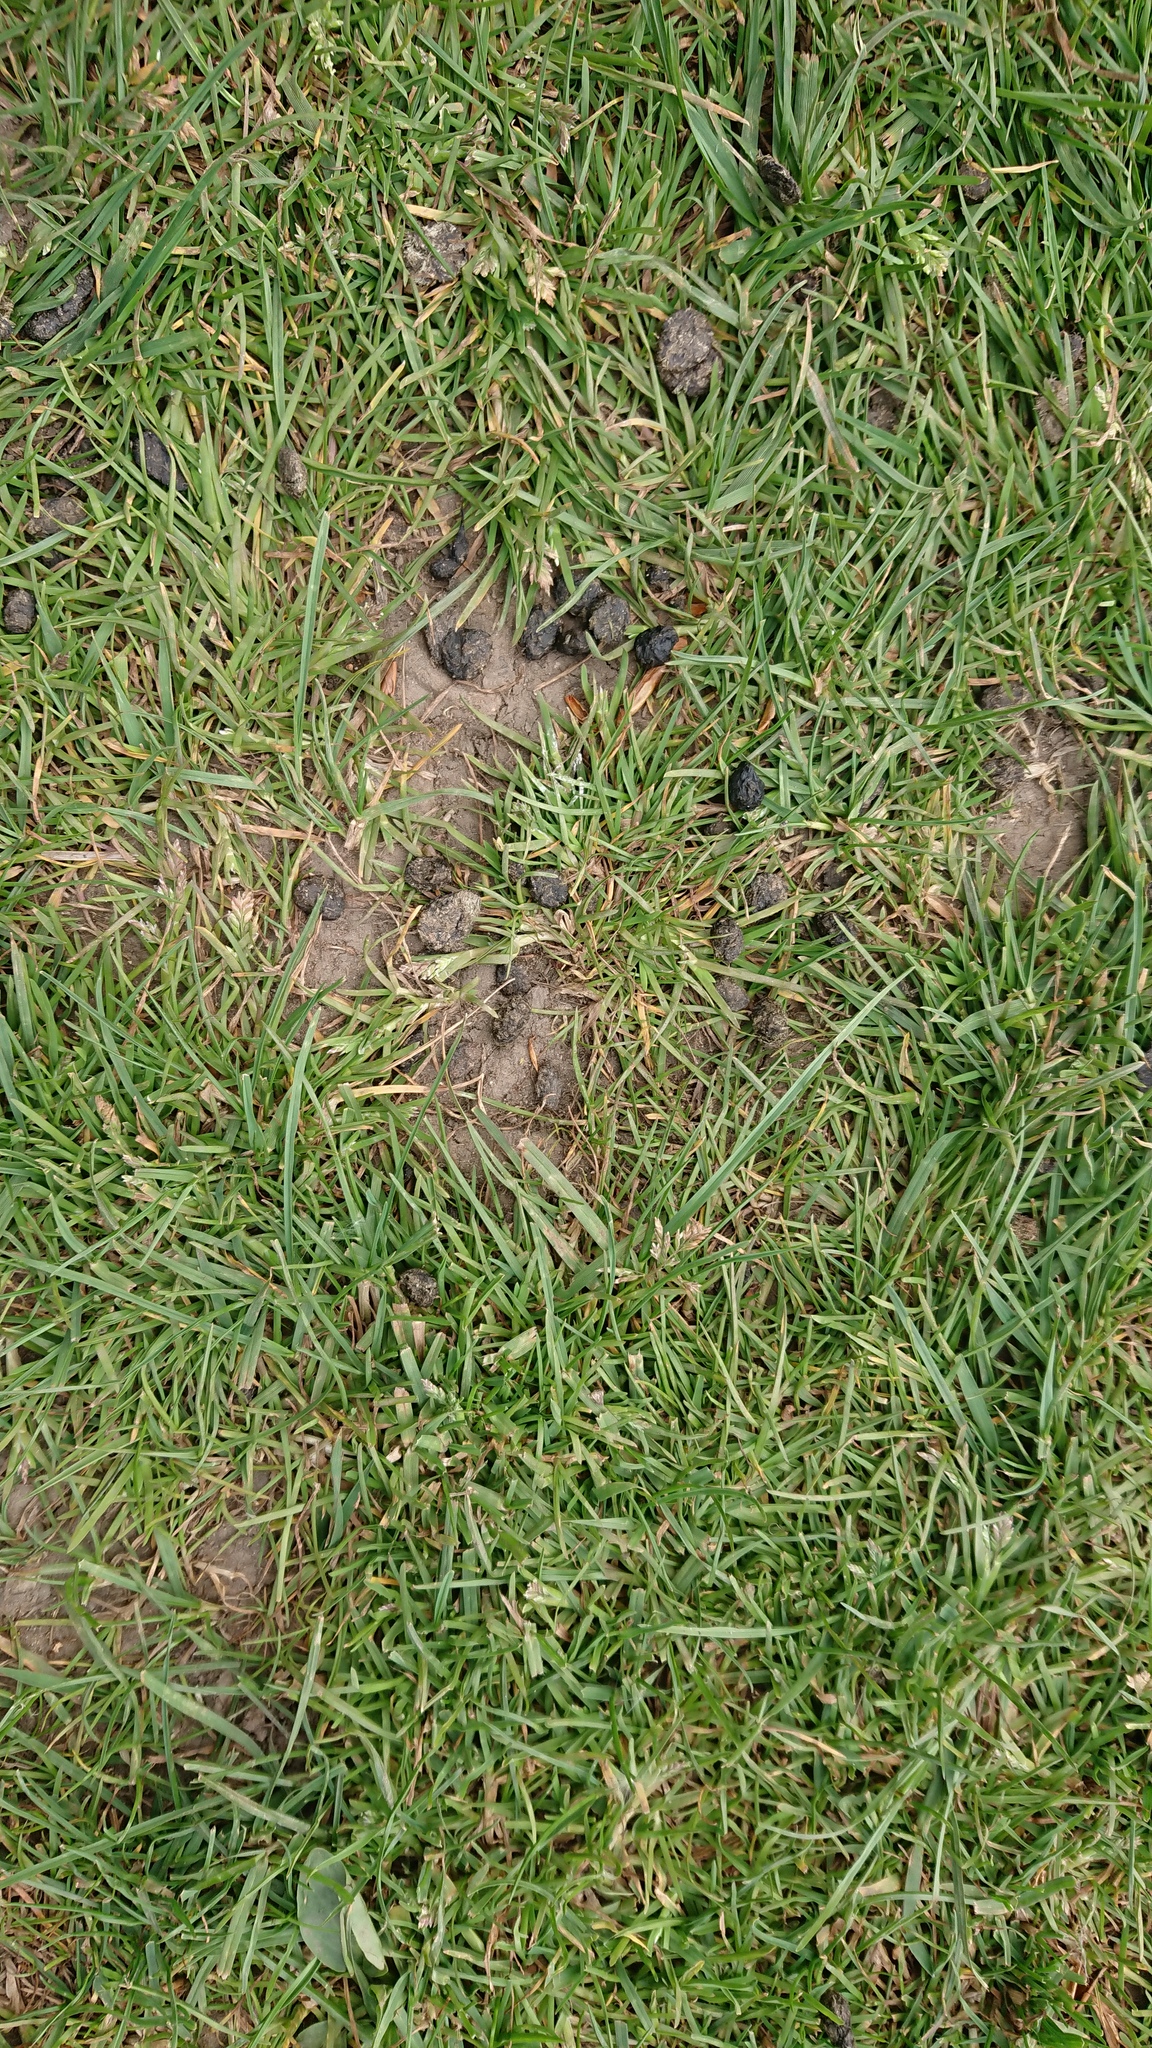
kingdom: Animalia
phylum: Chordata
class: Mammalia
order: Lagomorpha
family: Leporidae
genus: Oryctolagus
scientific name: Oryctolagus cuniculus
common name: European rabbit
